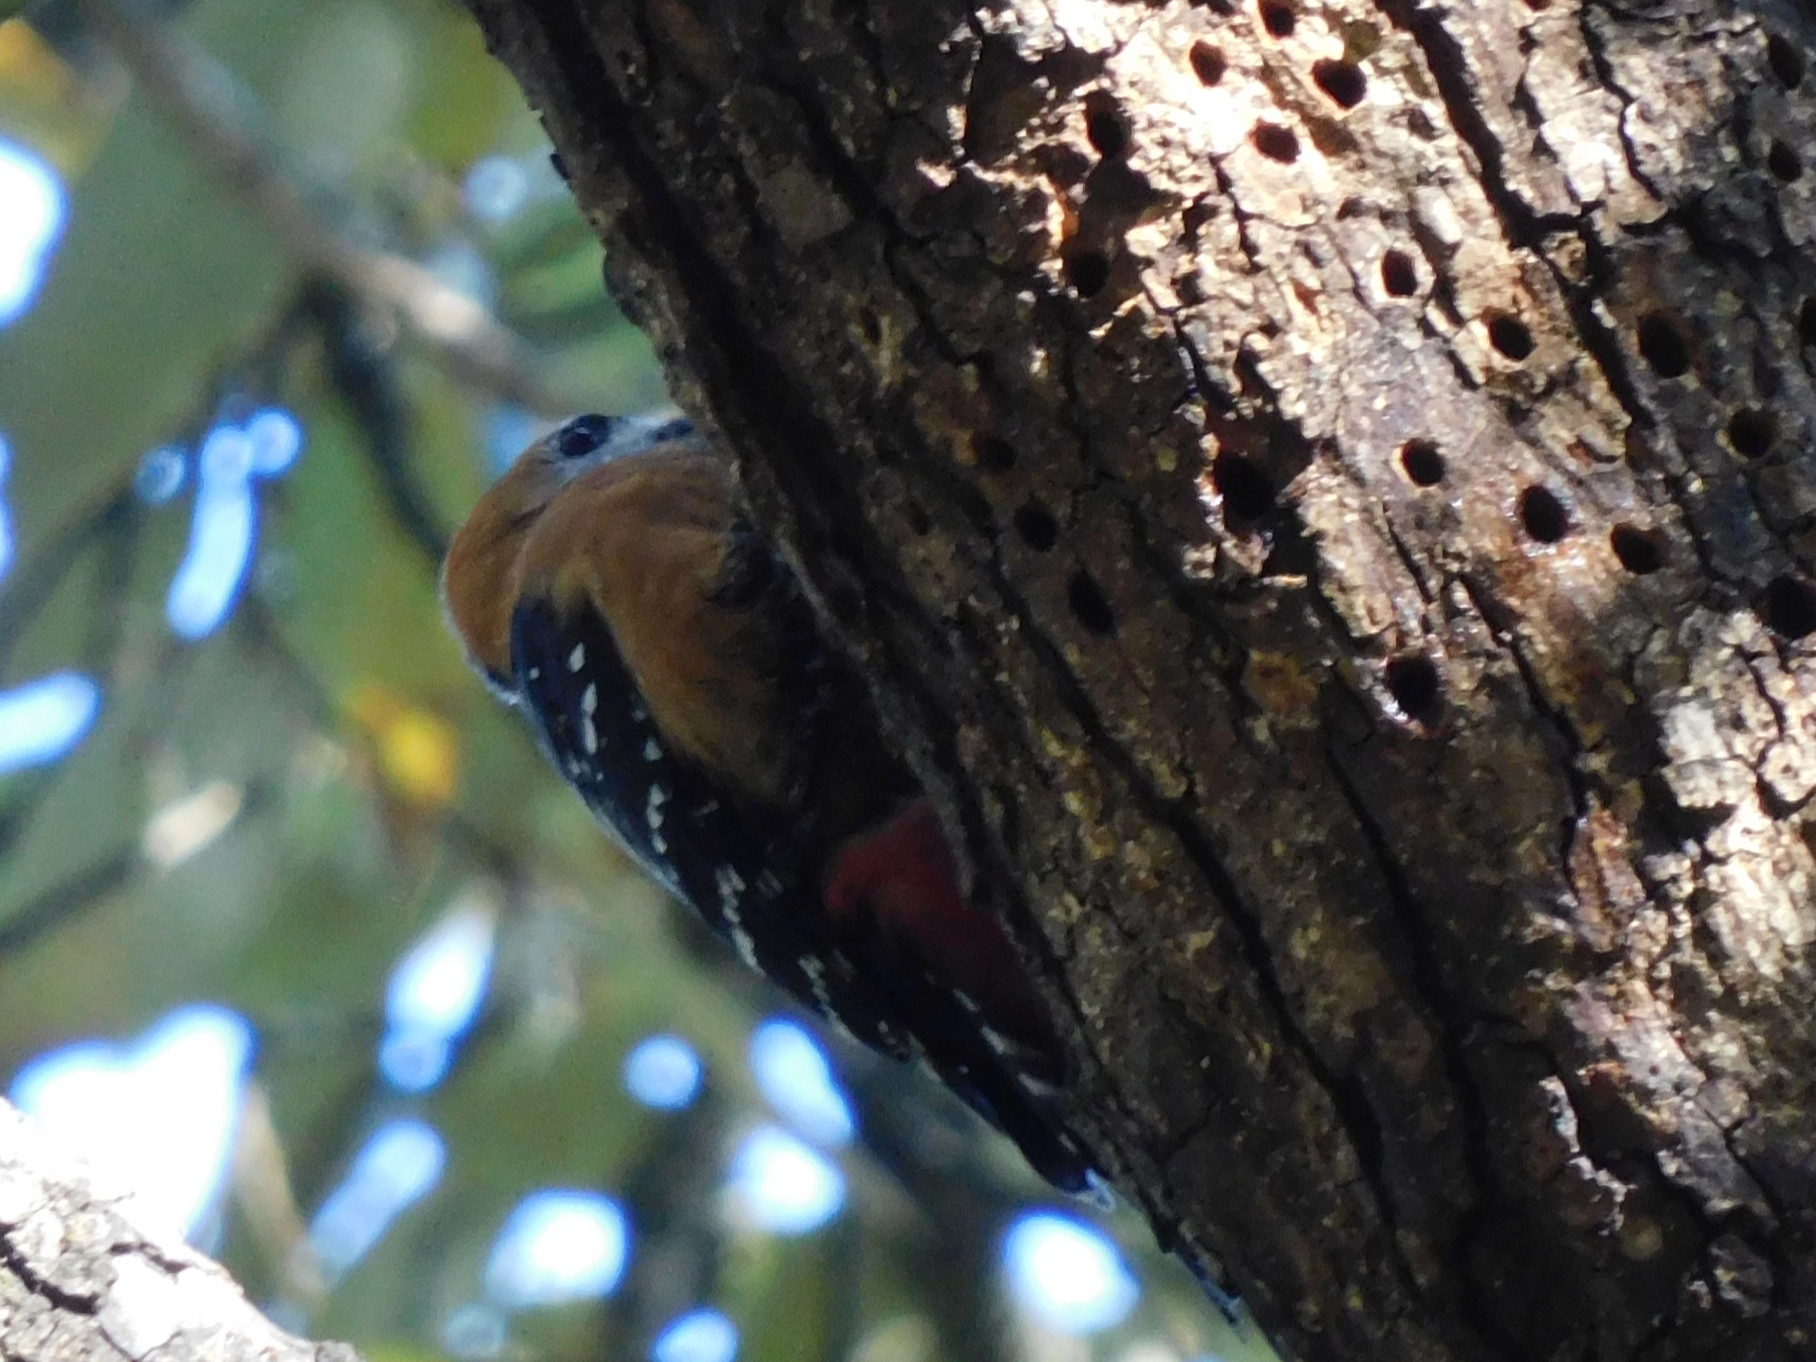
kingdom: Animalia
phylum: Chordata
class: Aves
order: Piciformes
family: Picidae
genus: Dendrocopos
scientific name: Dendrocopos hyperythrus
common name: Rufous-bellied woodpecker
